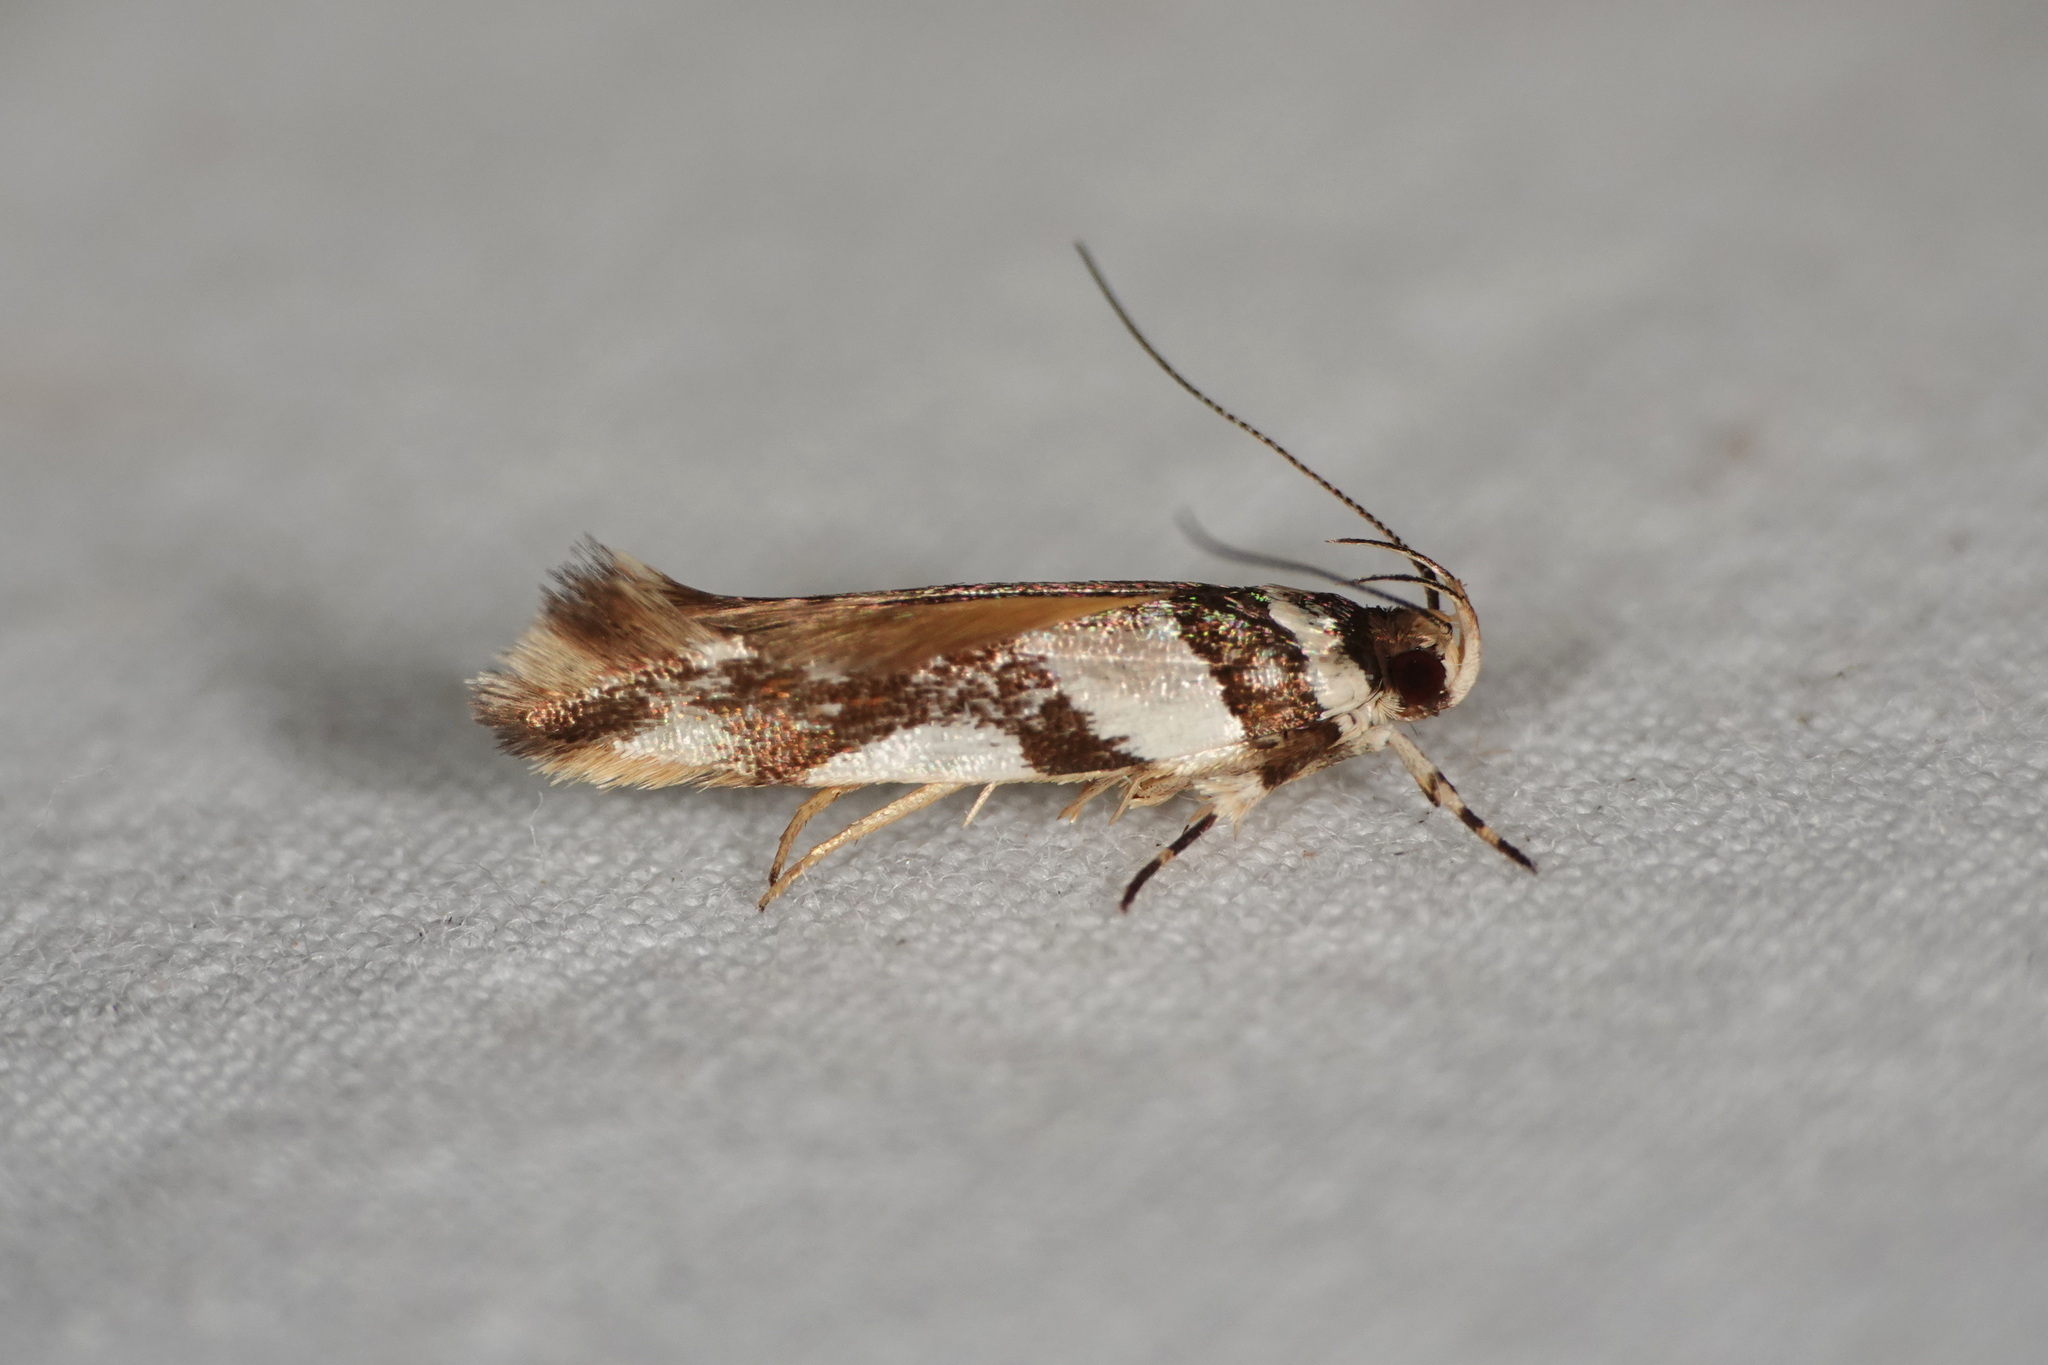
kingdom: Animalia
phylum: Arthropoda
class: Insecta
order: Lepidoptera
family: Cosmopterigidae
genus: Macrobathra
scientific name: Macrobathra desmotoma
